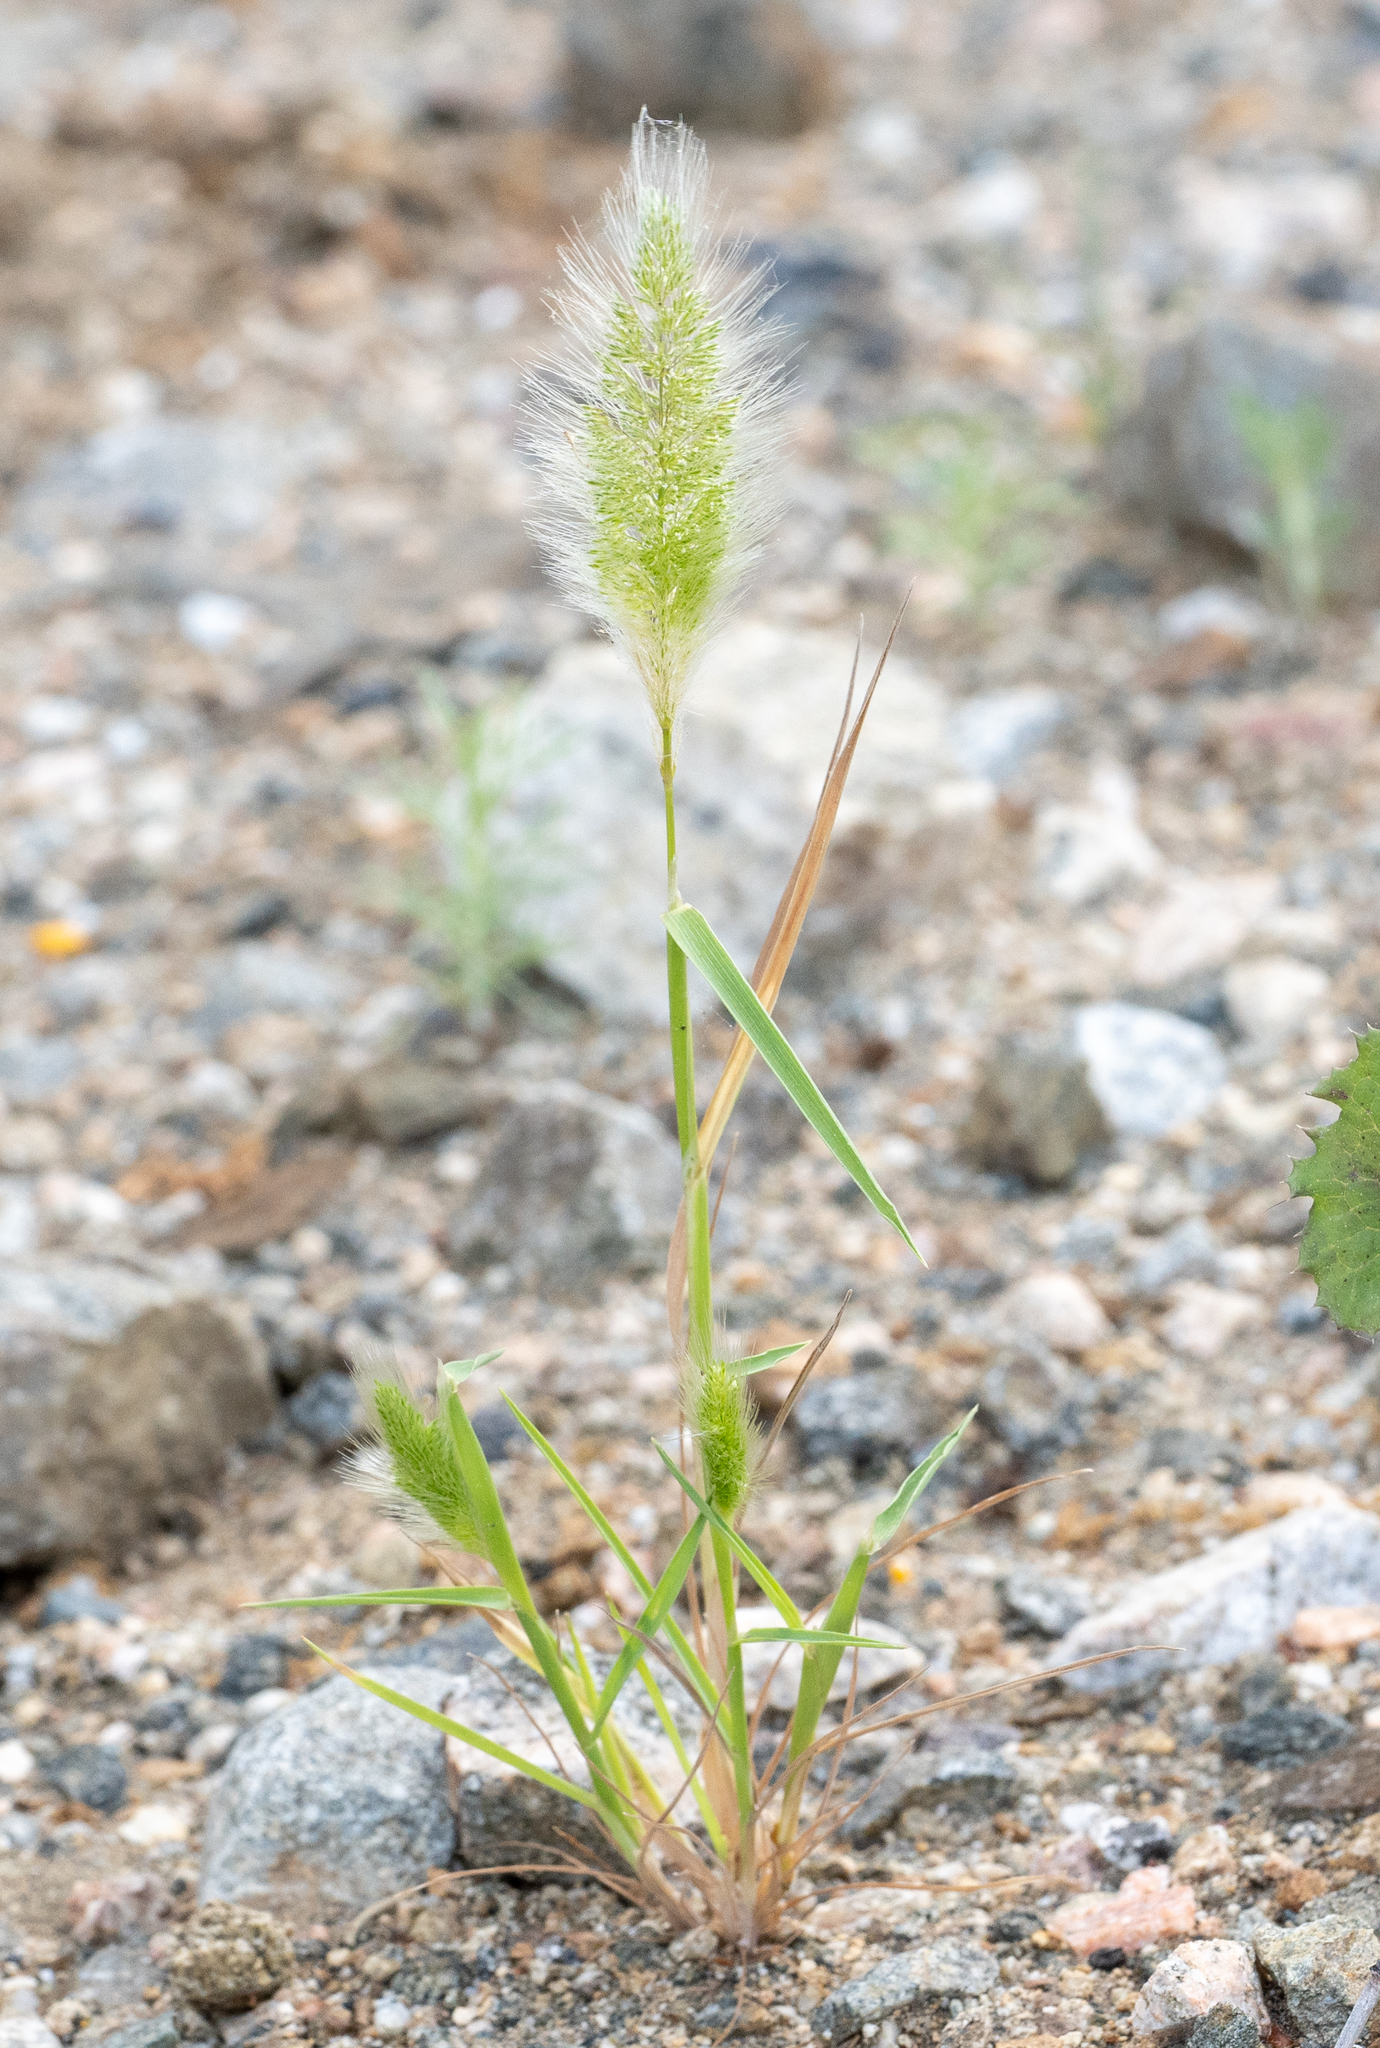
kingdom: Plantae
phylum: Tracheophyta
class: Liliopsida
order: Poales
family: Poaceae
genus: Polypogon
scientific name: Polypogon monspeliensis
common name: Annual rabbitsfoot grass
